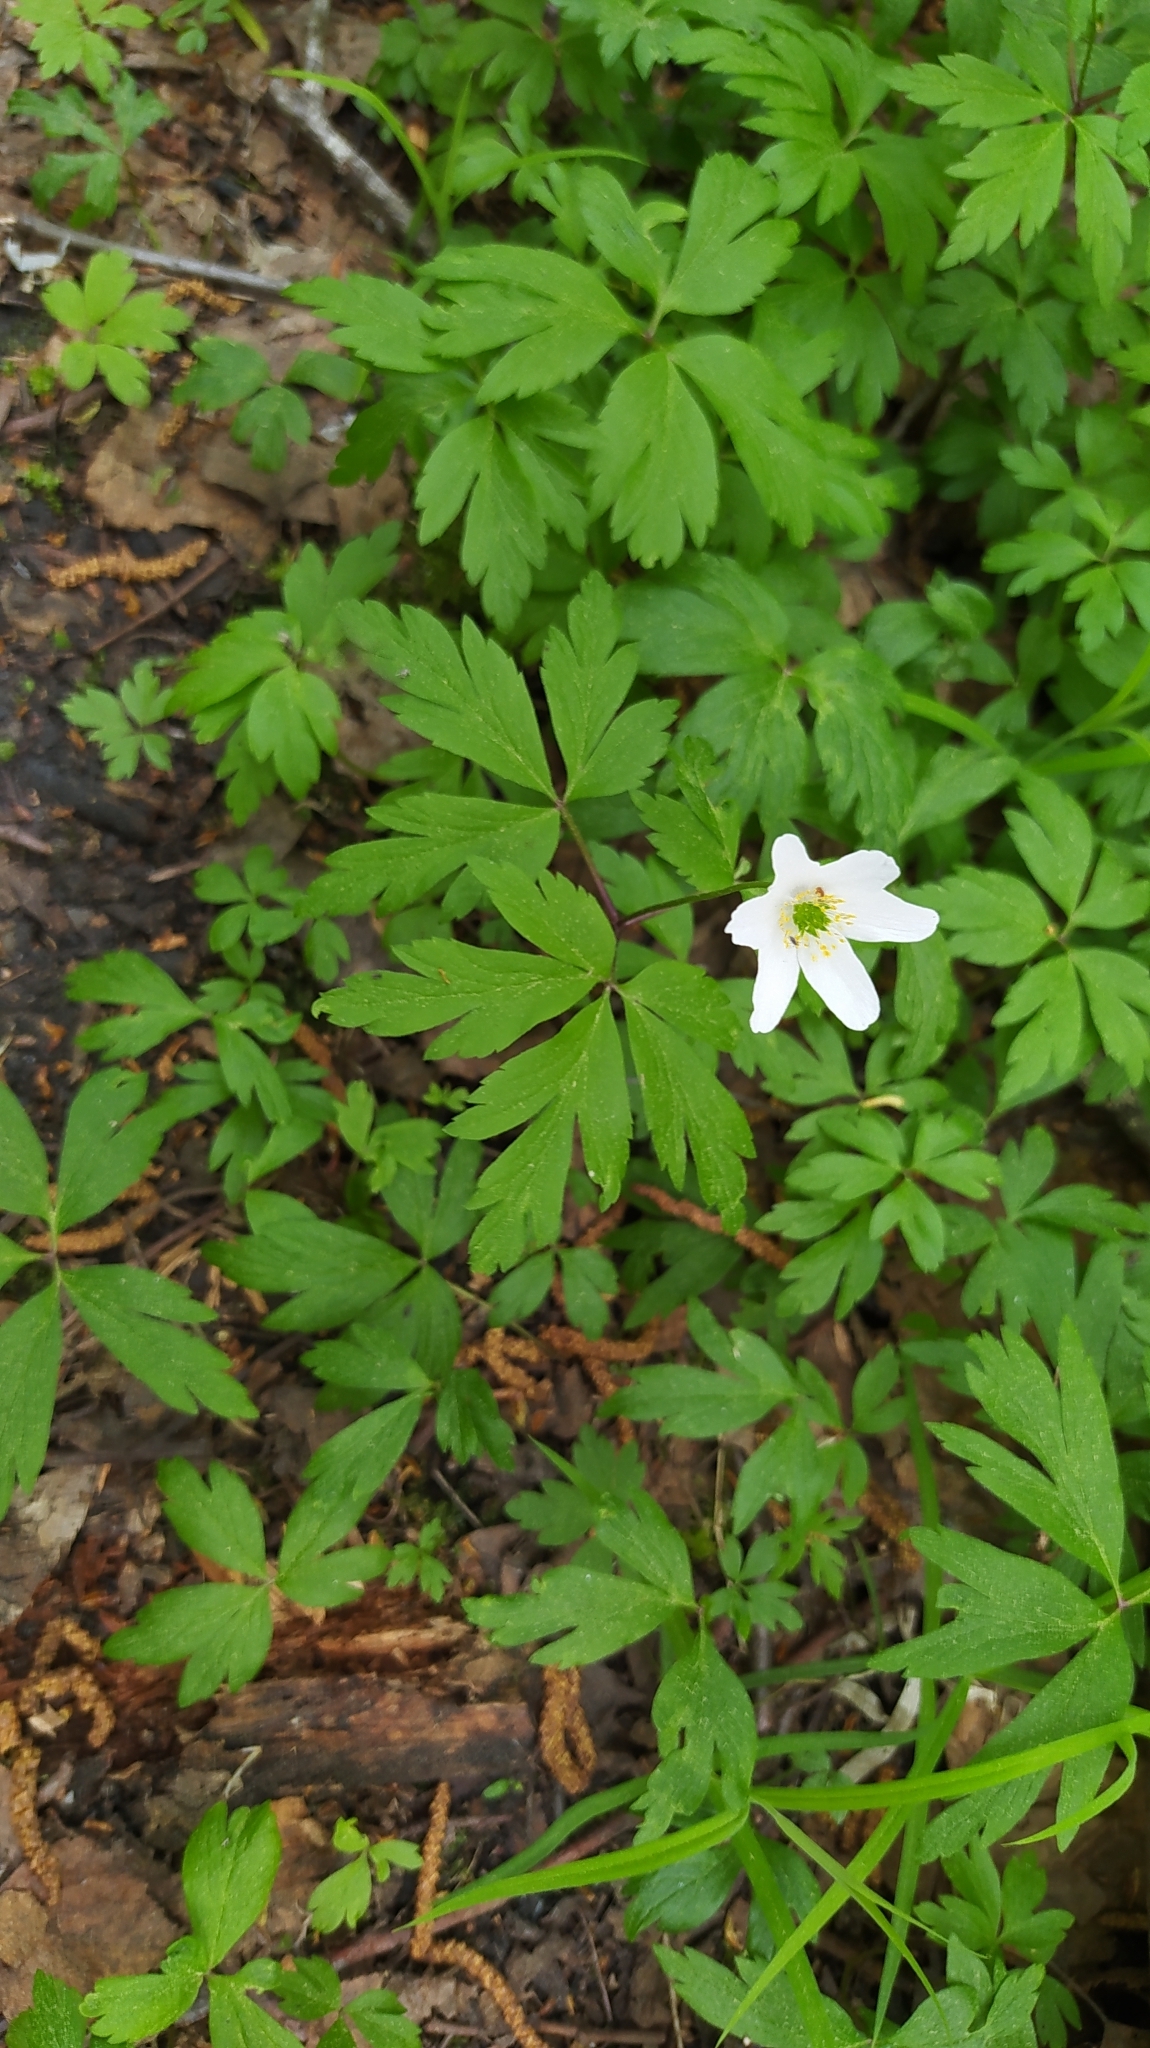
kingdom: Plantae
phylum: Tracheophyta
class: Magnoliopsida
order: Ranunculales
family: Ranunculaceae
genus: Anemone
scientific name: Anemone nemorosa
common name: Wood anemone
